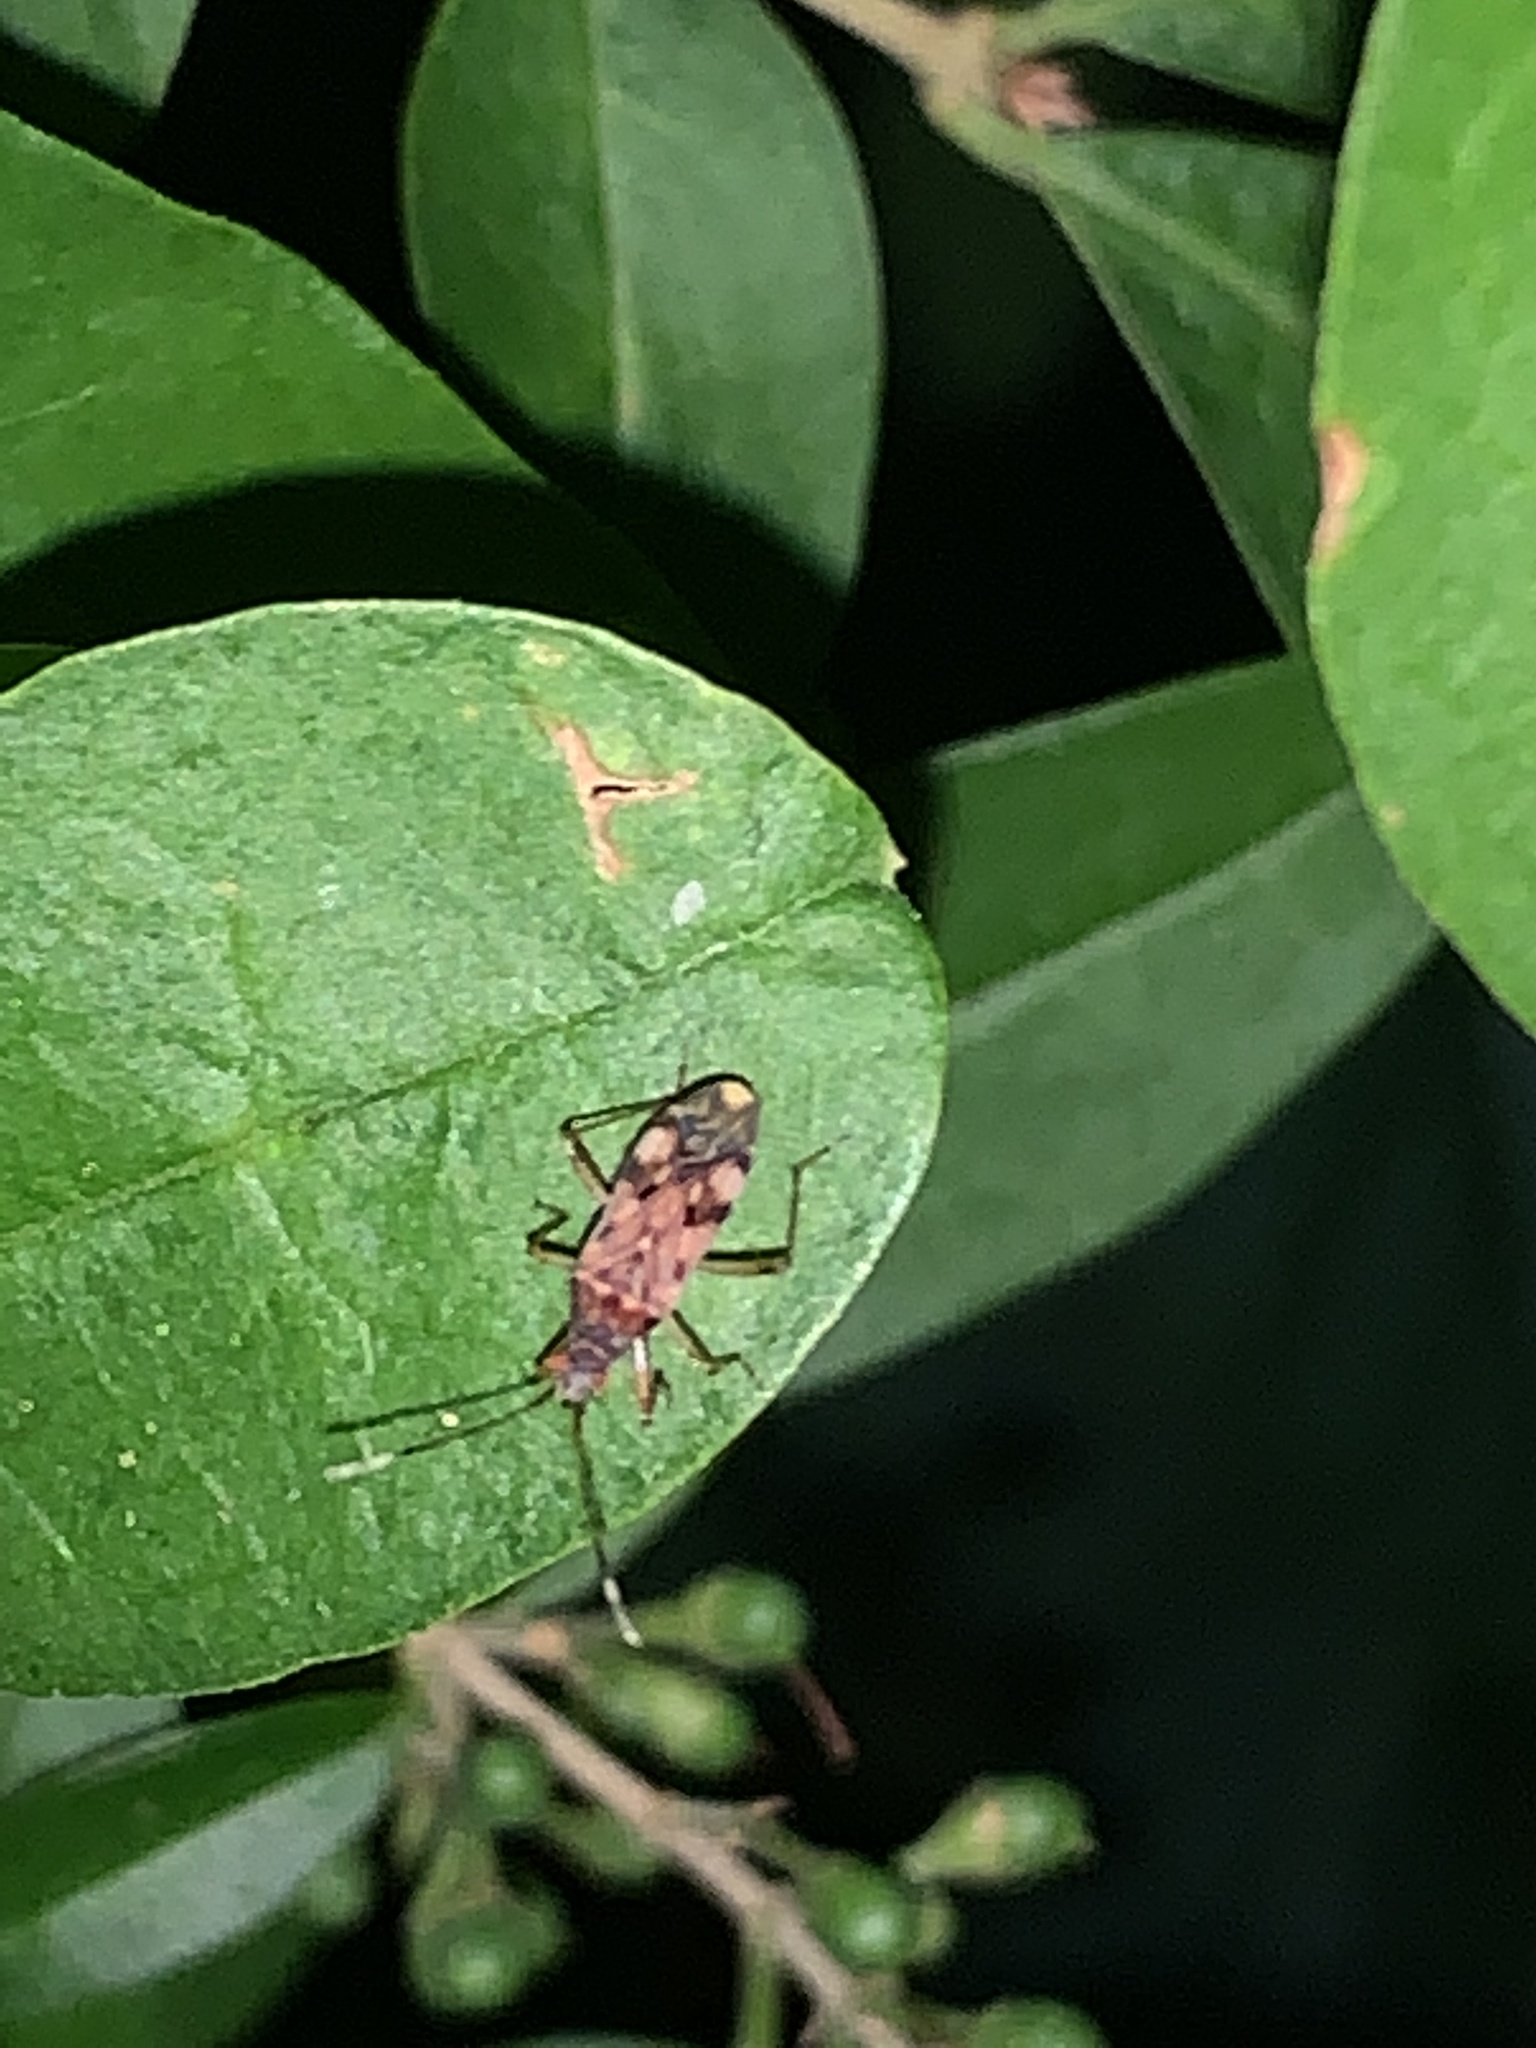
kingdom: Animalia
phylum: Arthropoda
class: Insecta
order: Hemiptera
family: Rhyparochromidae
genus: Ozophora
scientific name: Ozophora picturata
